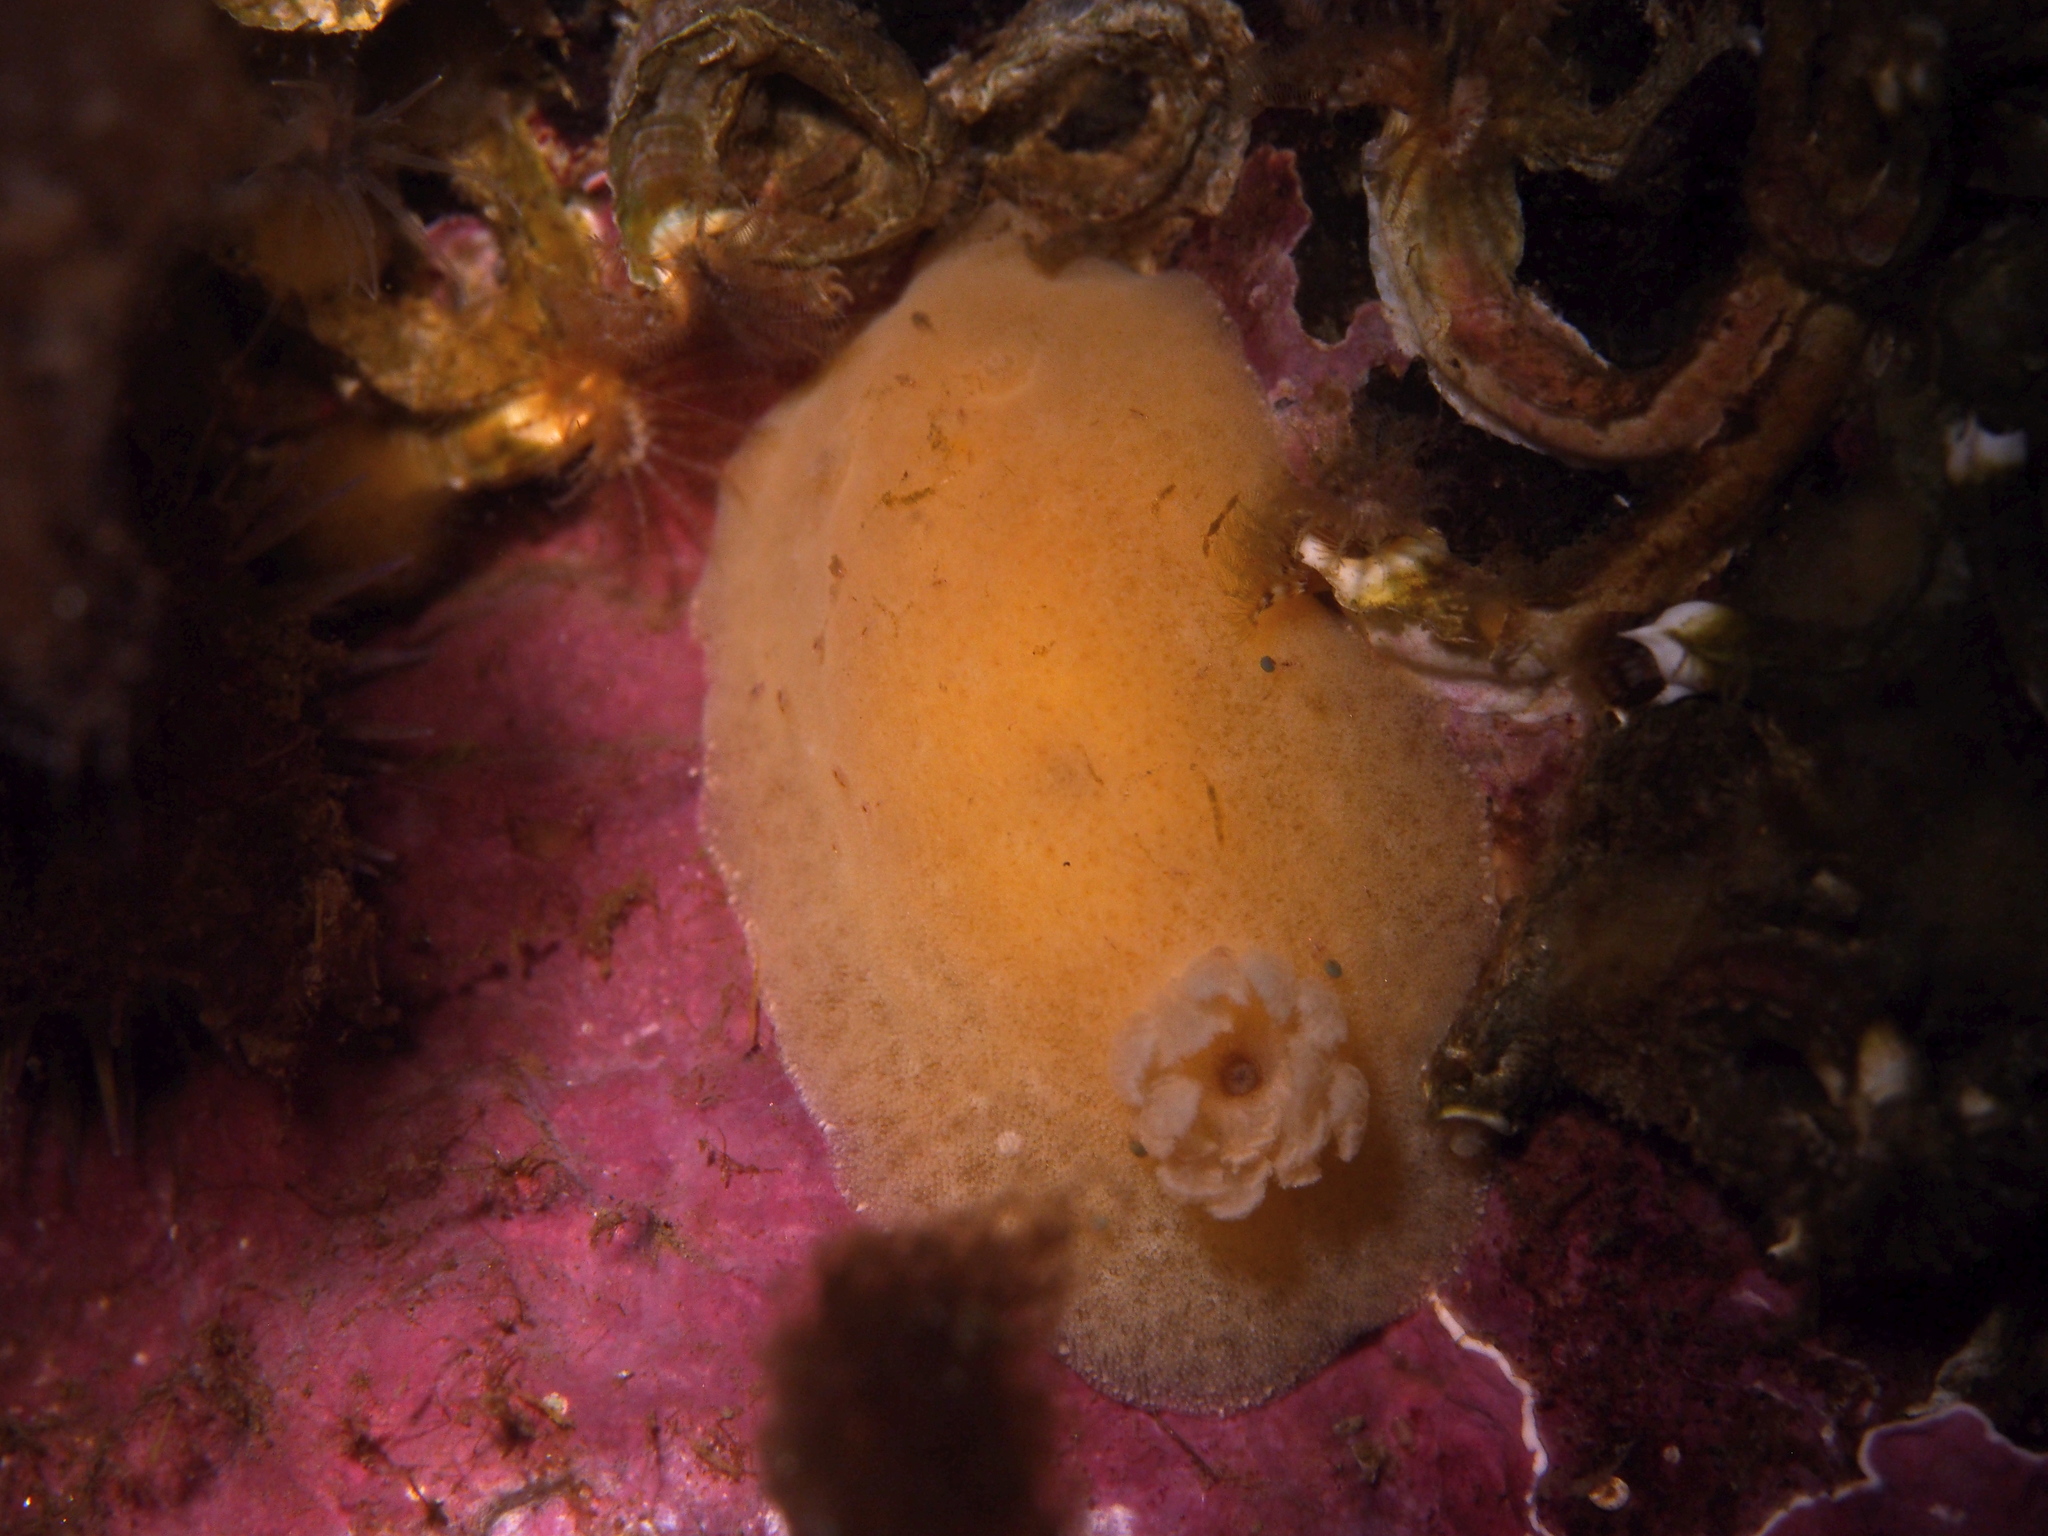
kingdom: Animalia
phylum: Mollusca
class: Gastropoda
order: Nudibranchia
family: Discodorididae
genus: Jorunna
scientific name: Jorunna tomentosa
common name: Grey sea slug
